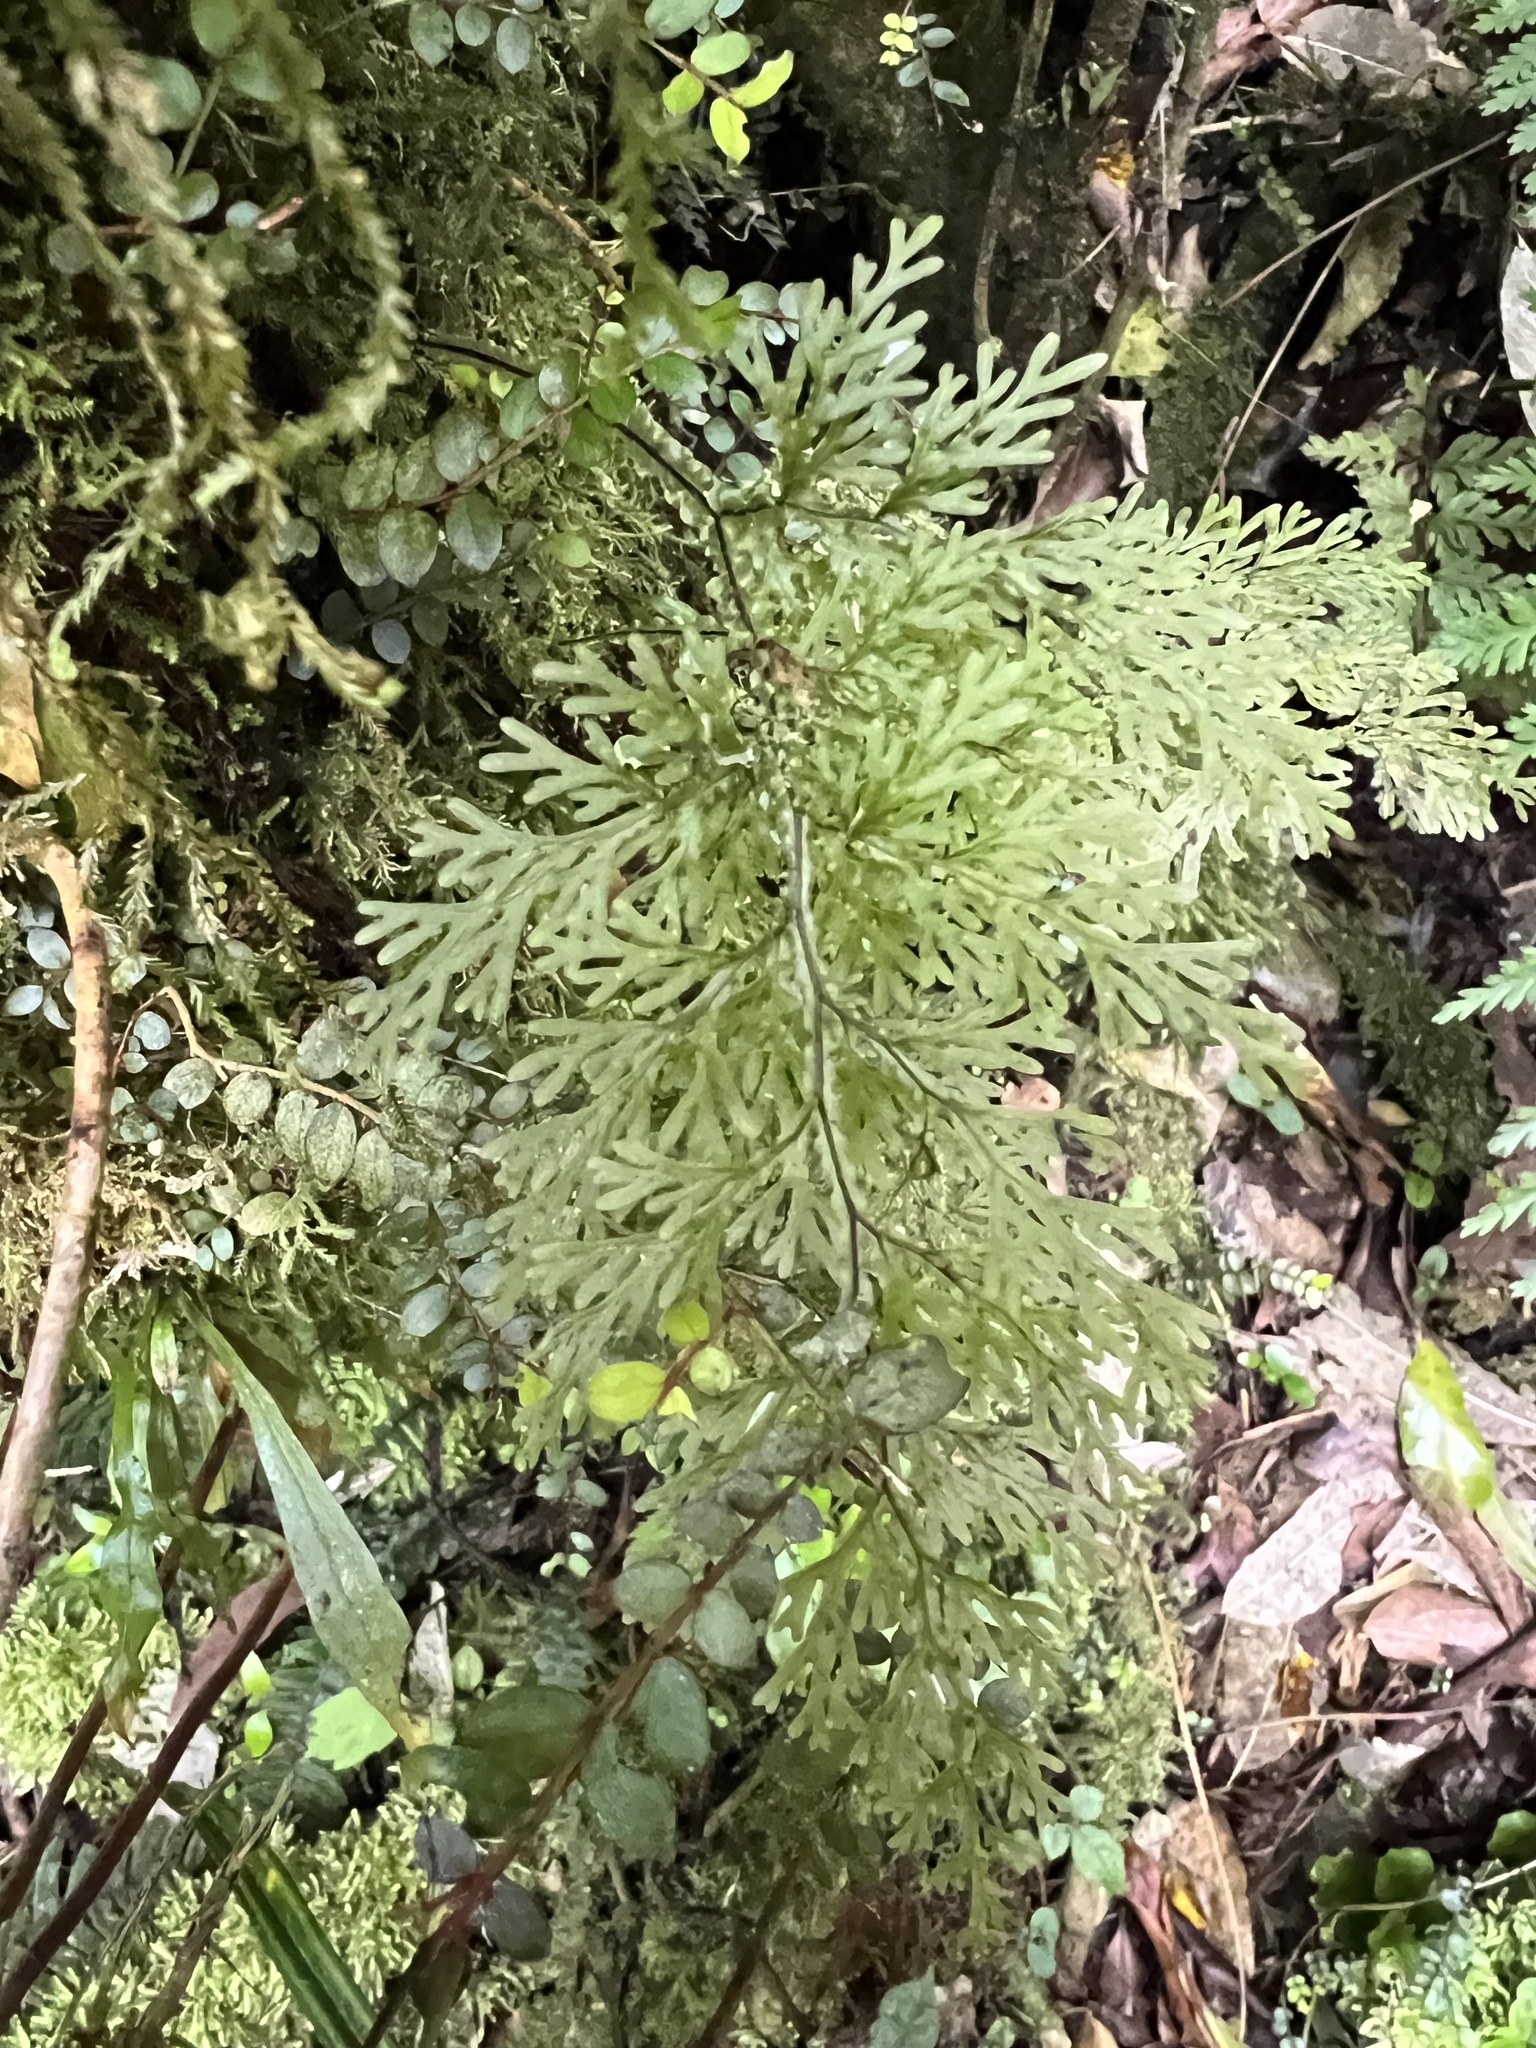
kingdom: Plantae
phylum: Tracheophyta
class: Polypodiopsida
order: Hymenophyllales
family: Hymenophyllaceae
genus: Hymenophyllum
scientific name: Hymenophyllum flexuosum
